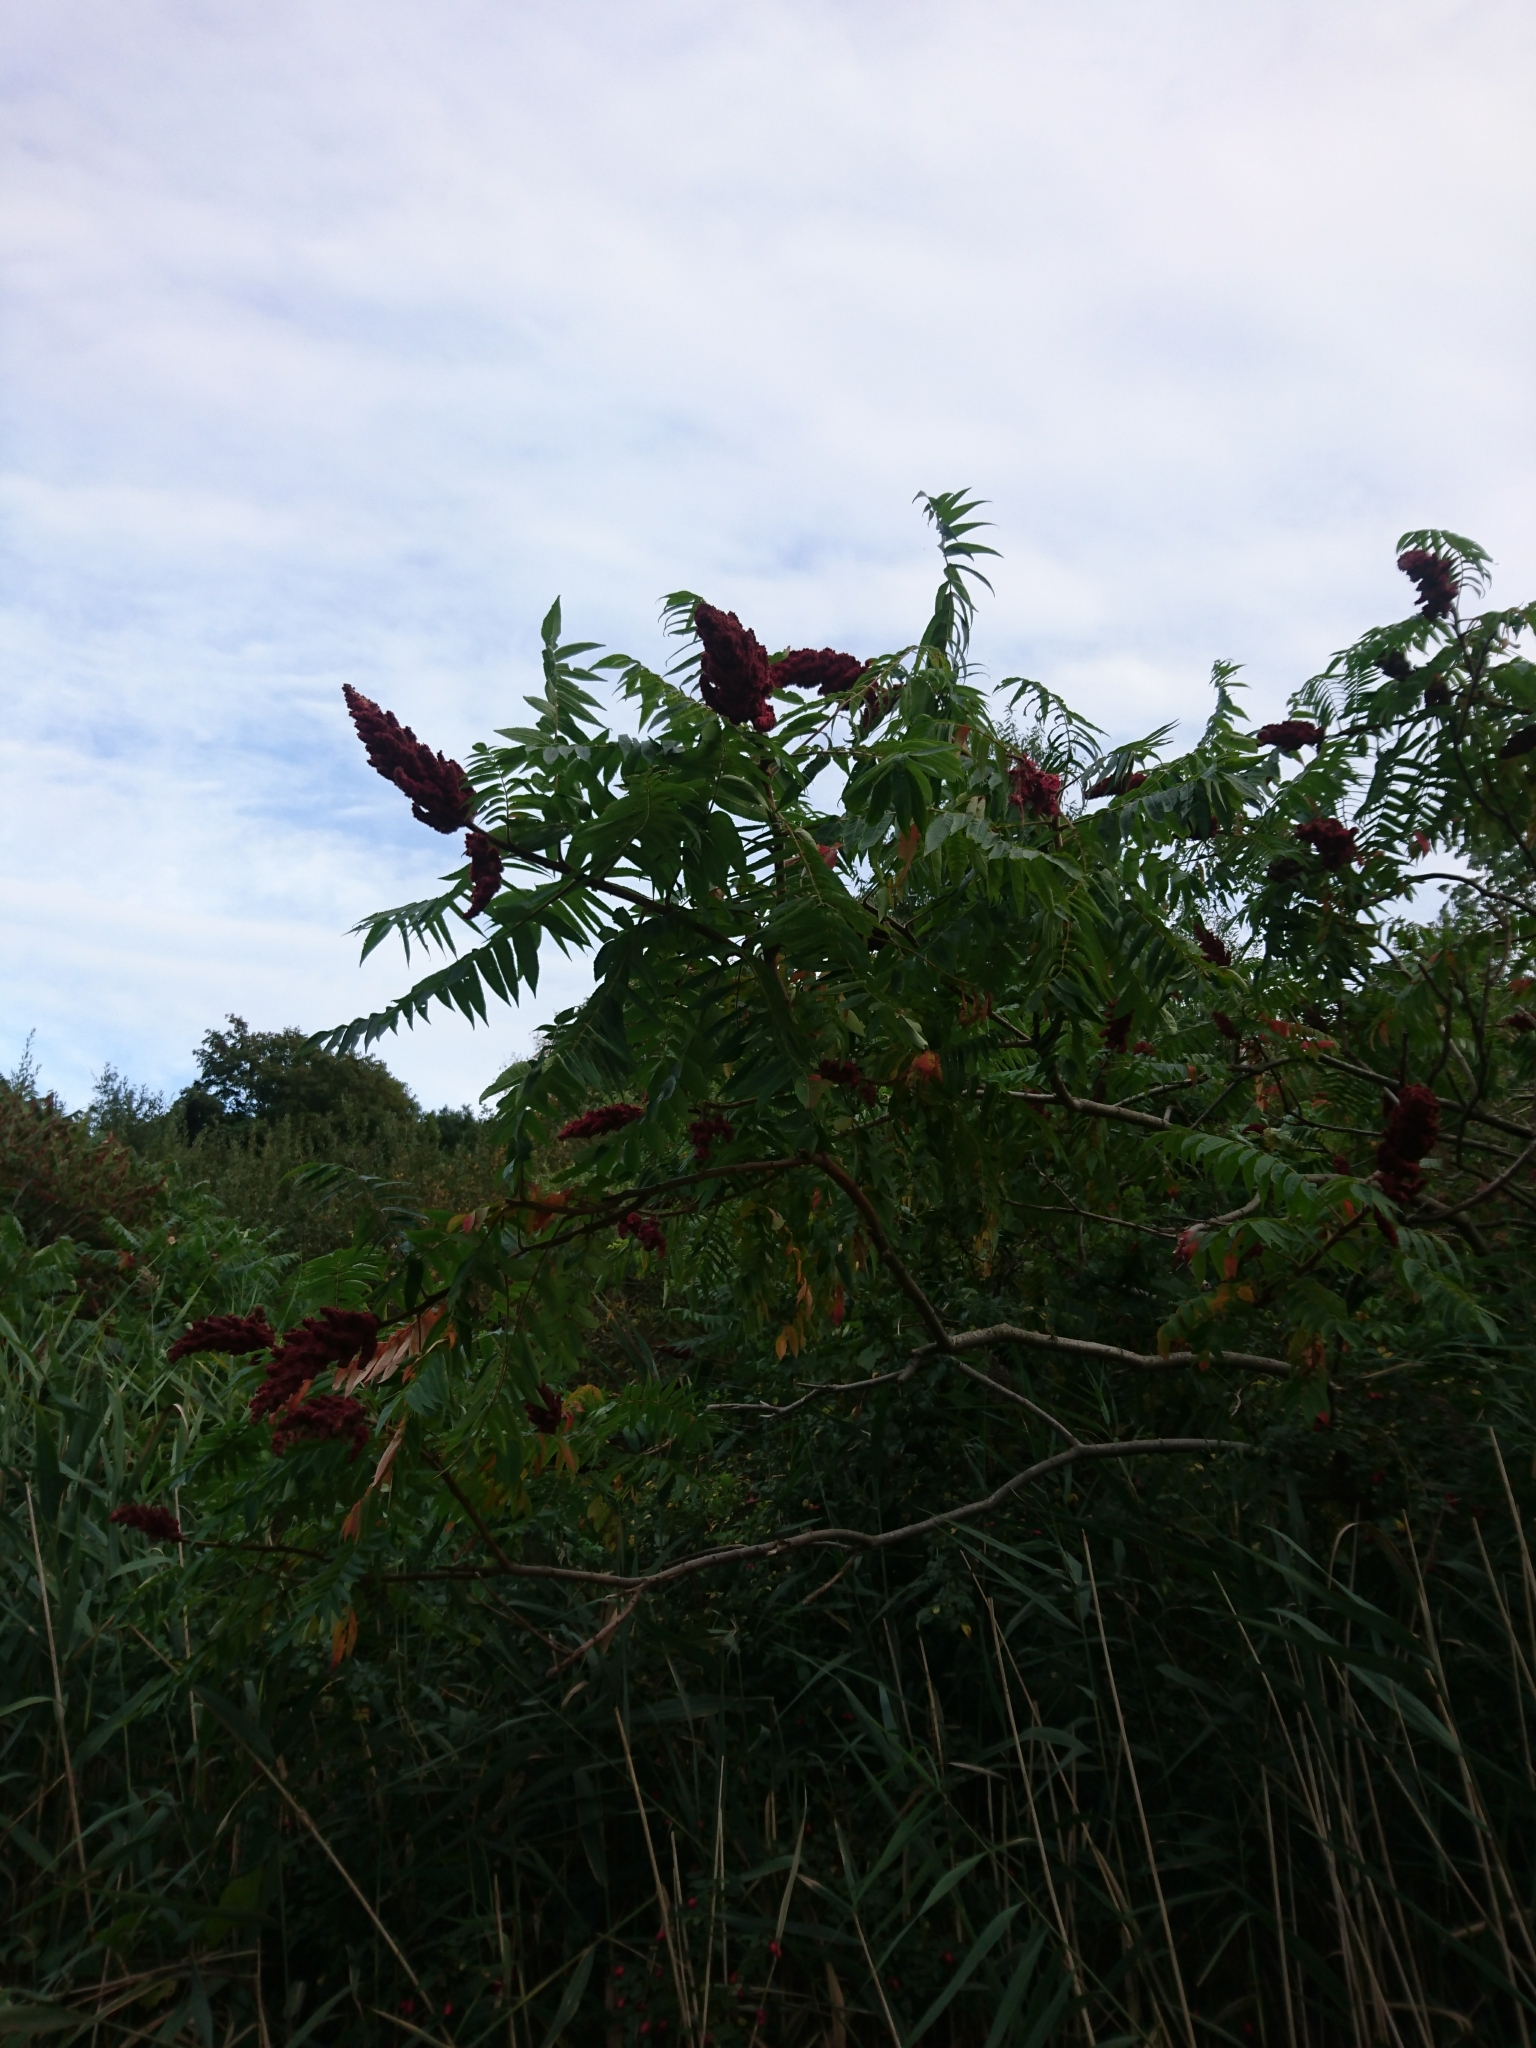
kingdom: Plantae
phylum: Tracheophyta
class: Magnoliopsida
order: Sapindales
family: Anacardiaceae
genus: Rhus
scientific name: Rhus typhina
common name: Staghorn sumac
